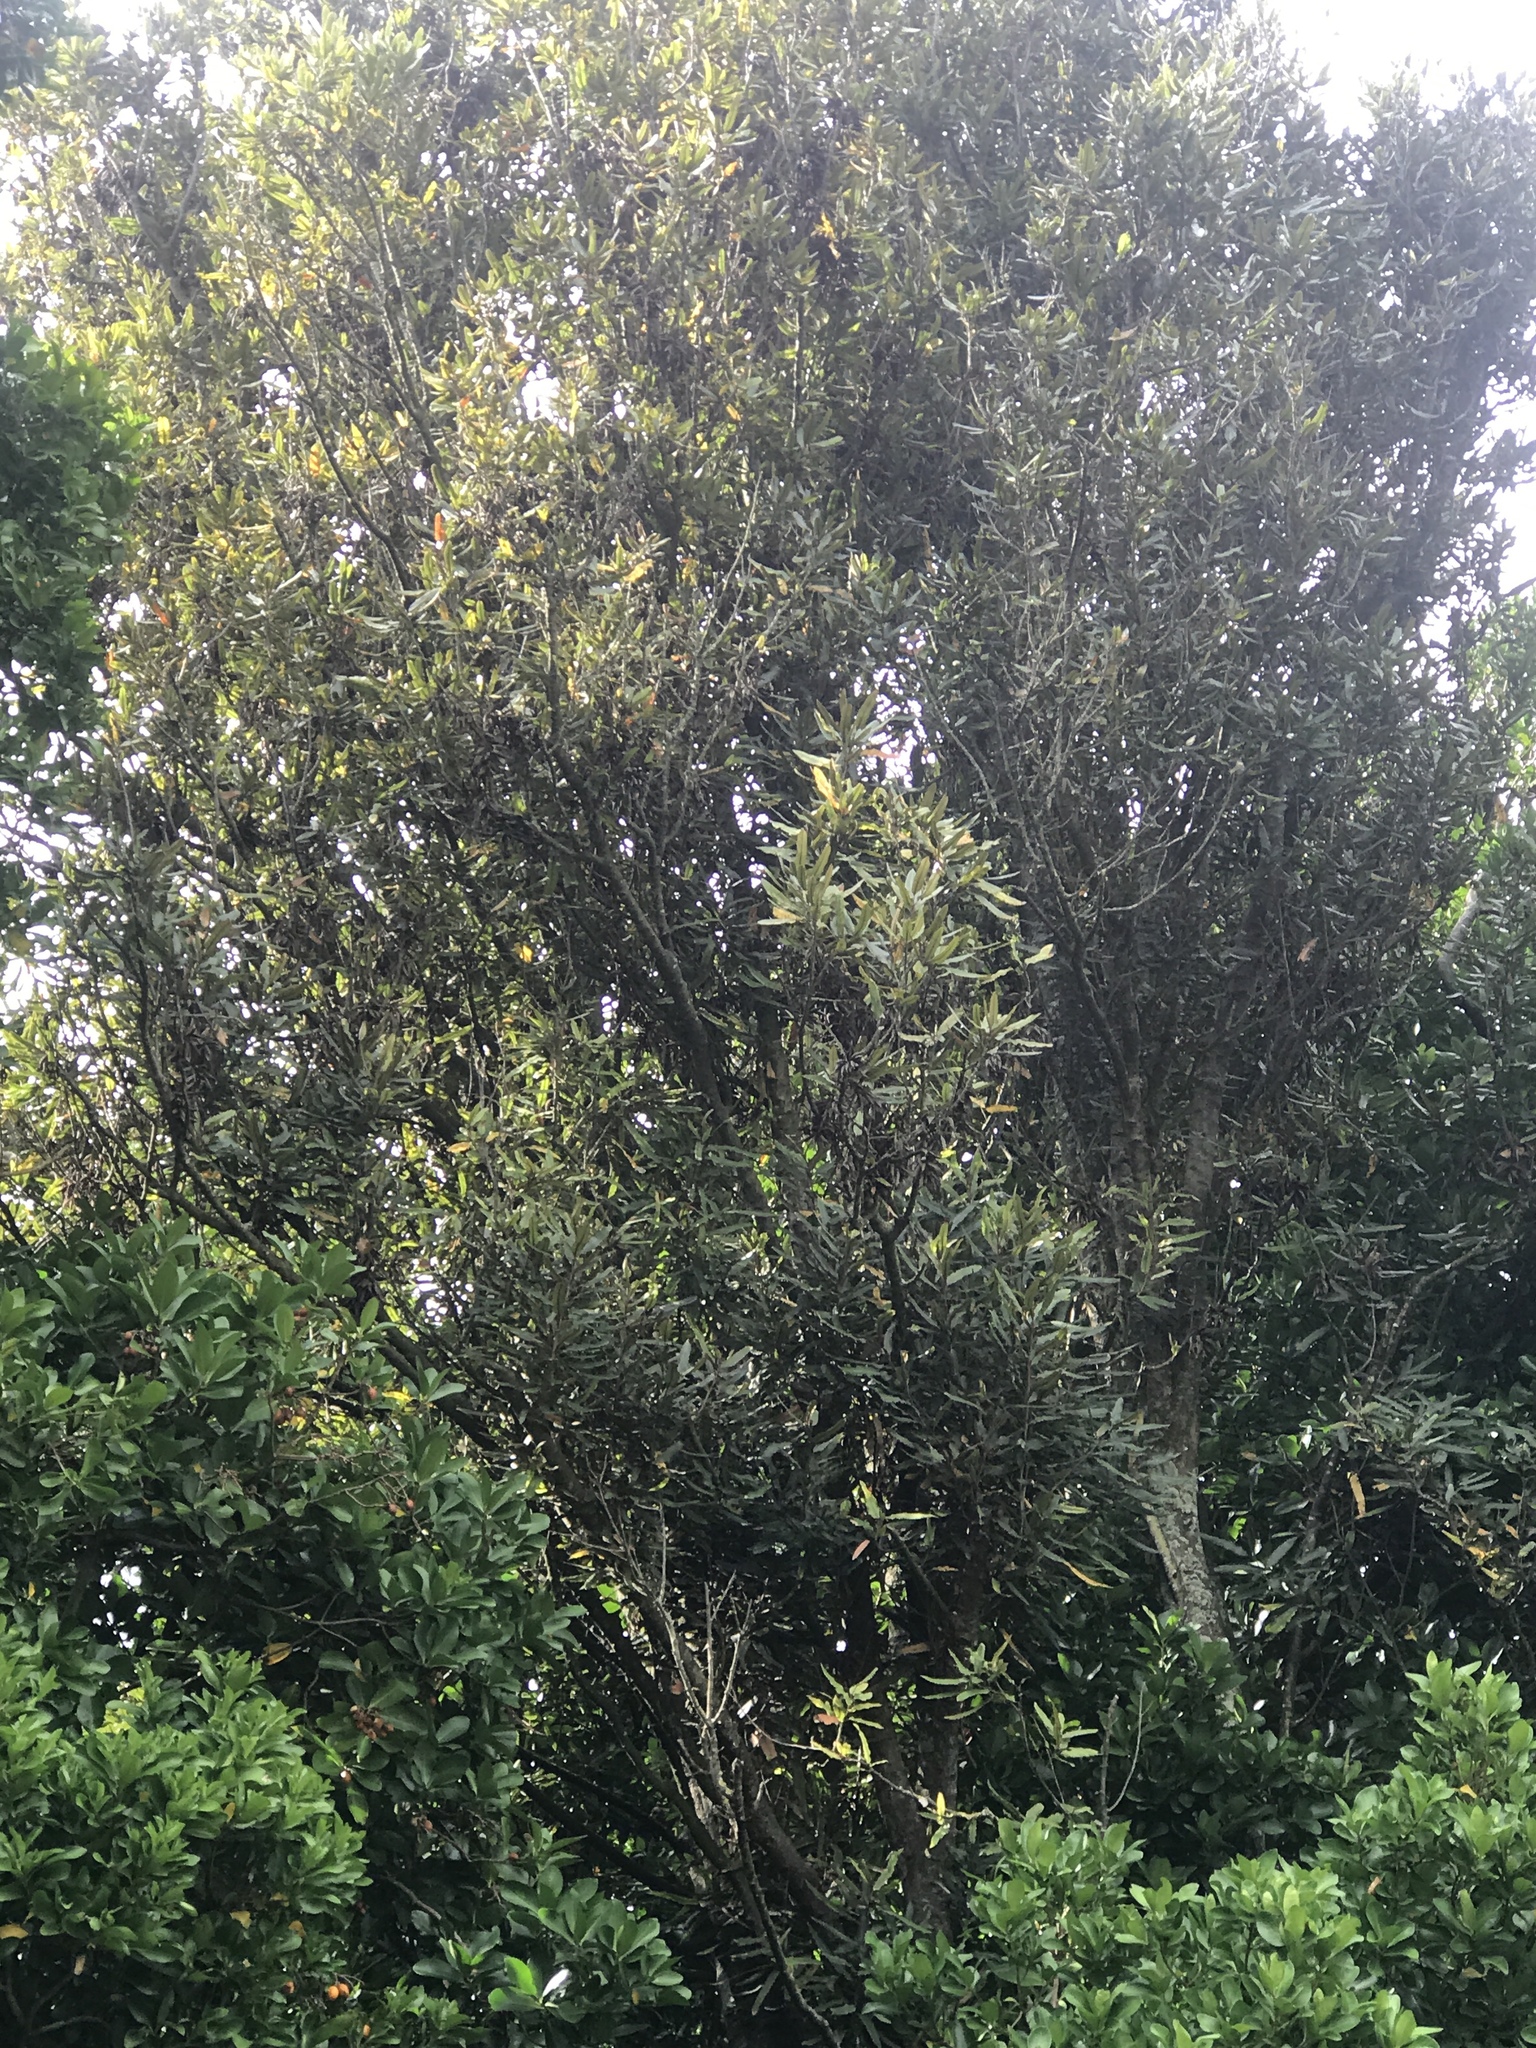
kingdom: Plantae
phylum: Tracheophyta
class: Magnoliopsida
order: Proteales
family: Proteaceae
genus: Knightia
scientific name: Knightia excelsa
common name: New zealand-honeysuckle
